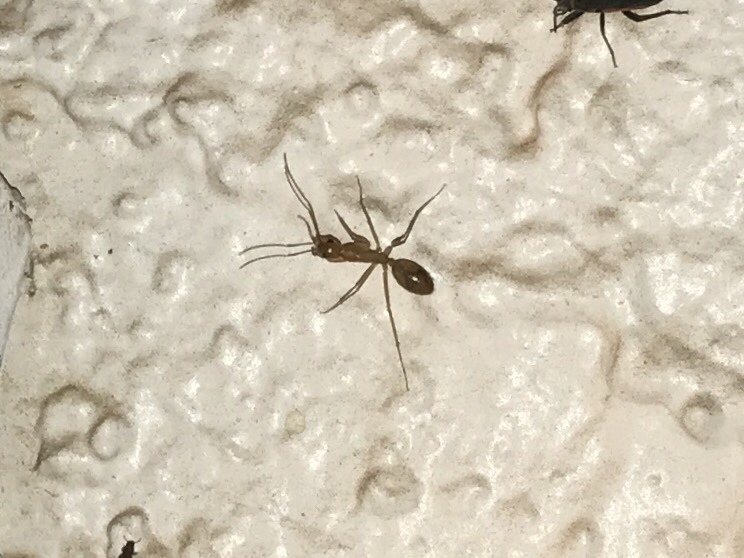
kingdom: Animalia
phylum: Arthropoda
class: Insecta
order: Hymenoptera
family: Formicidae
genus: Camponotus
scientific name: Camponotus
